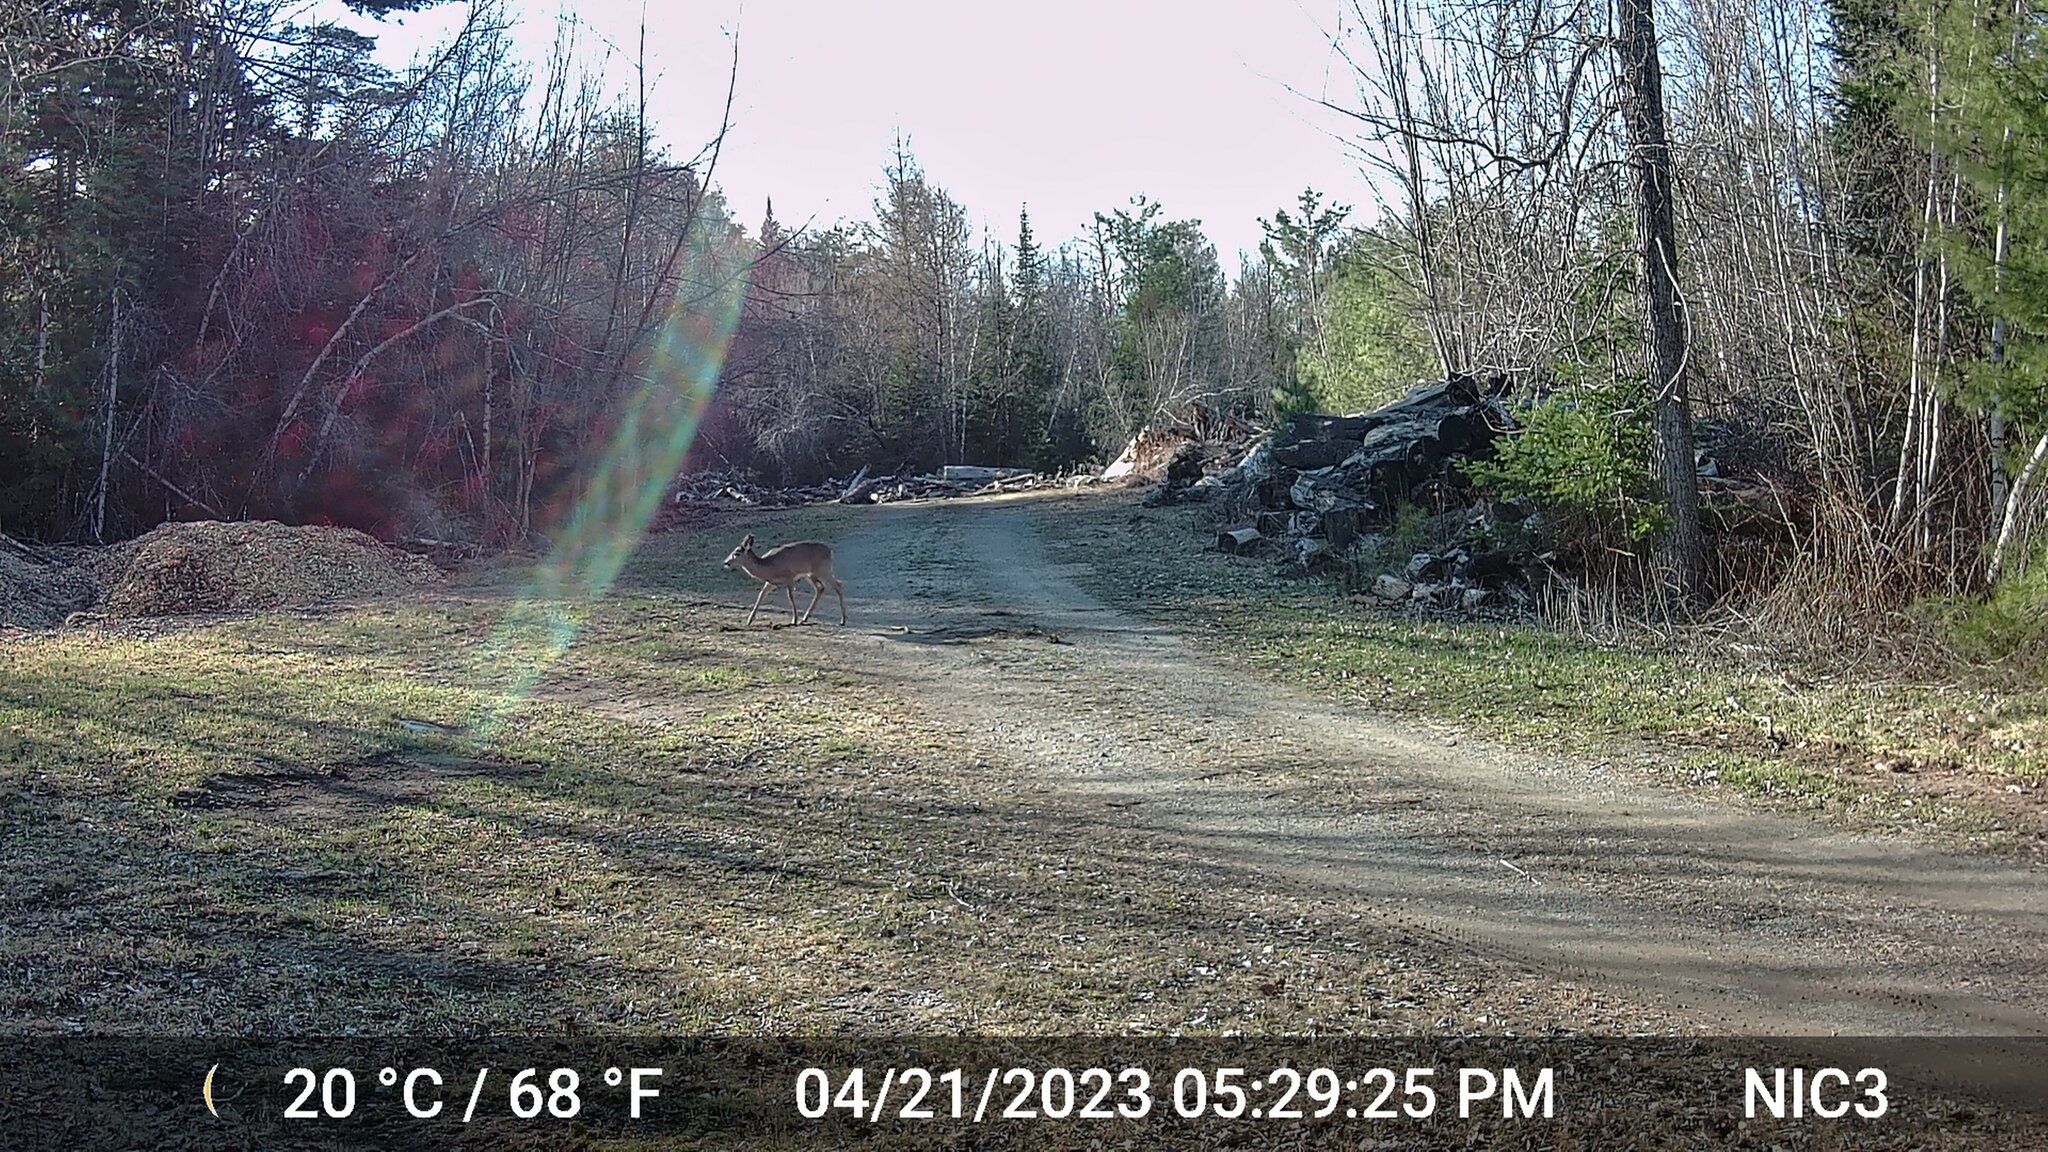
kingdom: Animalia
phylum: Chordata
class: Mammalia
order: Artiodactyla
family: Cervidae
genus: Odocoileus
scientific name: Odocoileus virginianus
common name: White-tailed deer
